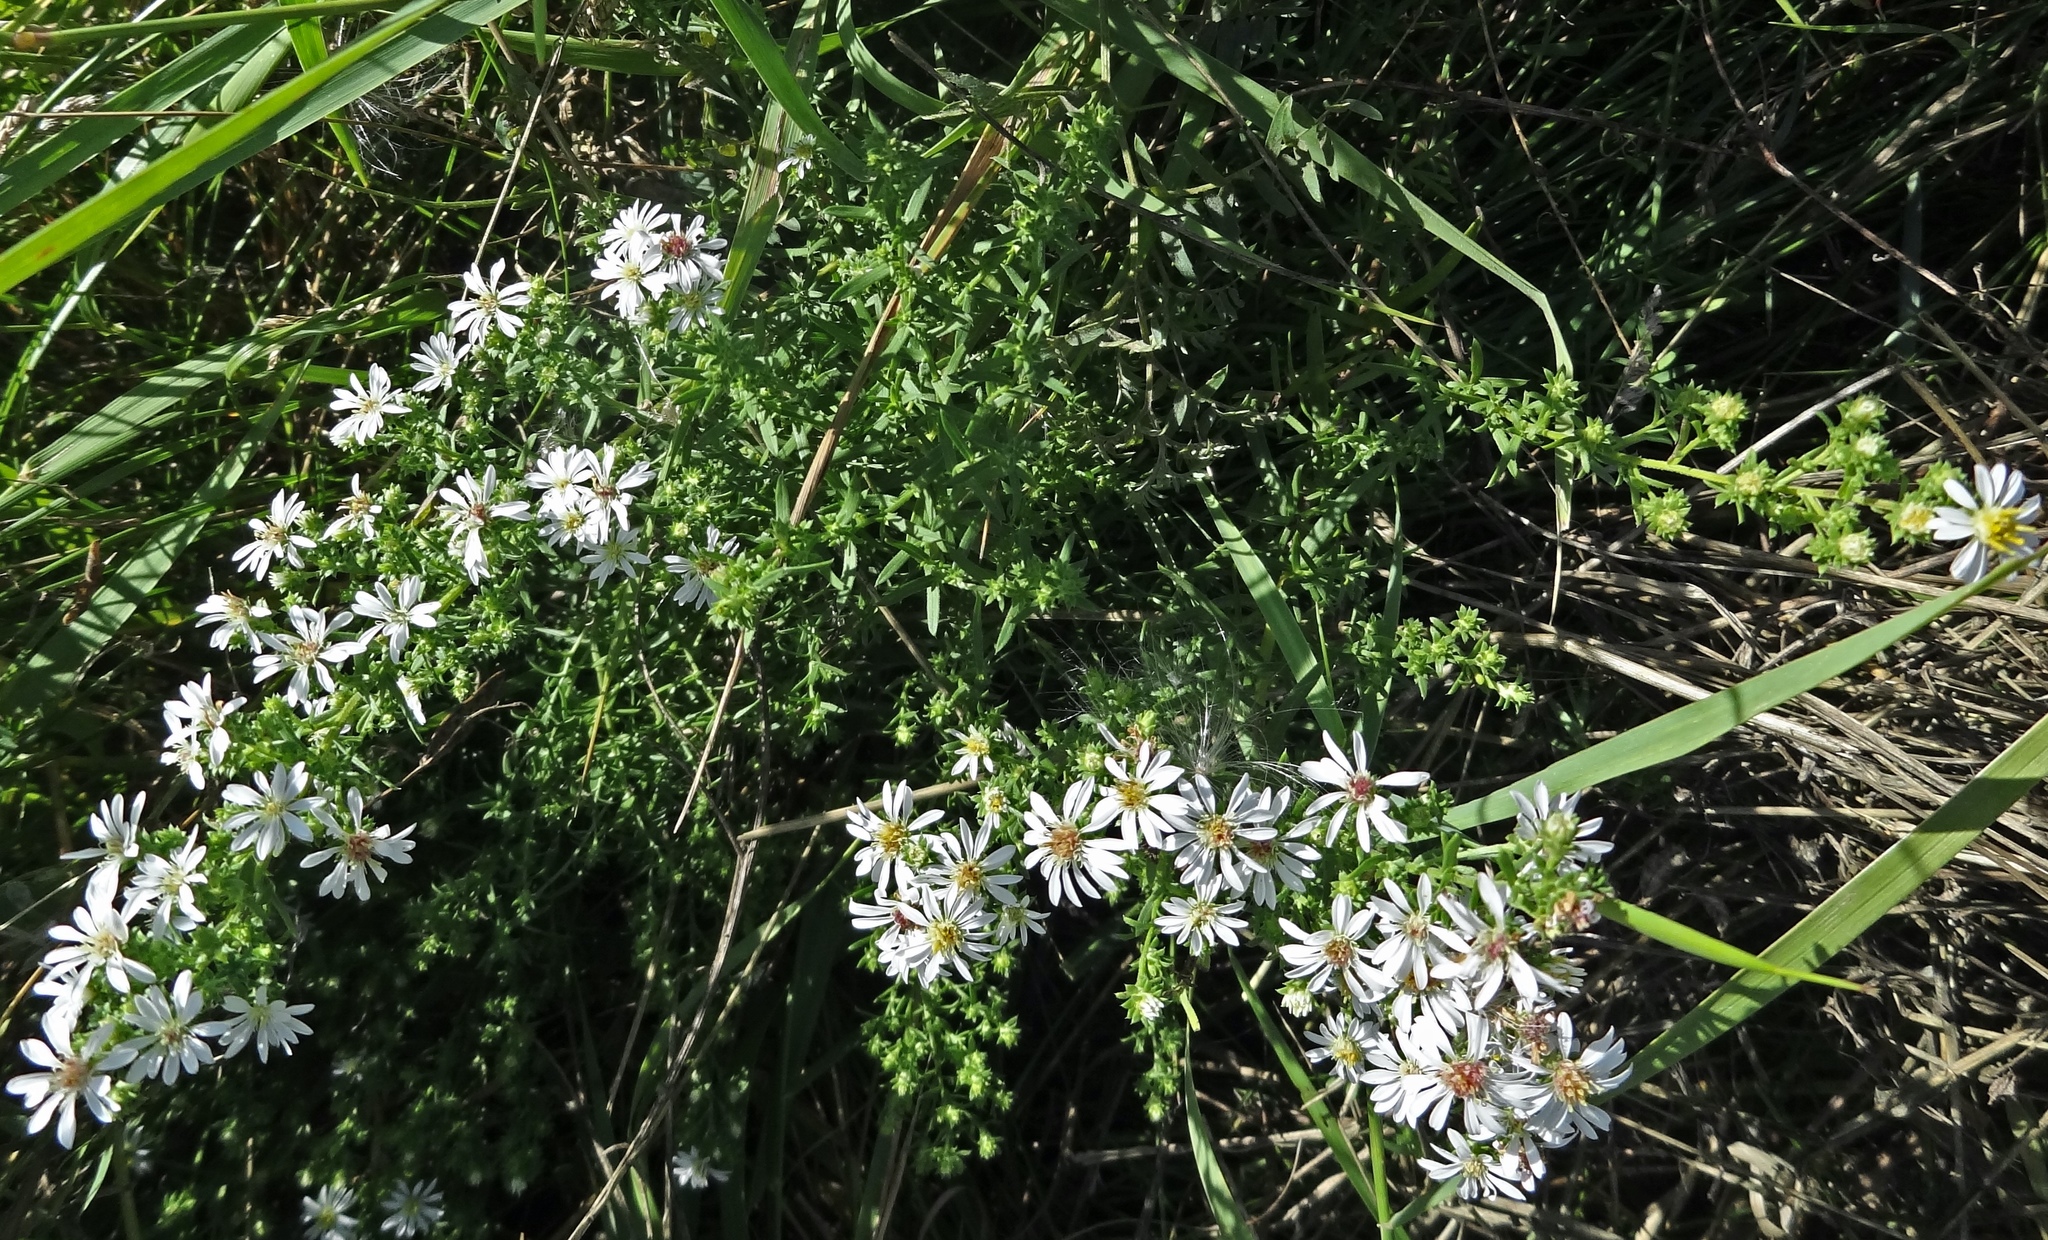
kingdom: Plantae
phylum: Tracheophyta
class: Magnoliopsida
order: Asterales
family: Asteraceae
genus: Symphyotrichum
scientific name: Symphyotrichum ericoides
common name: Heath aster
